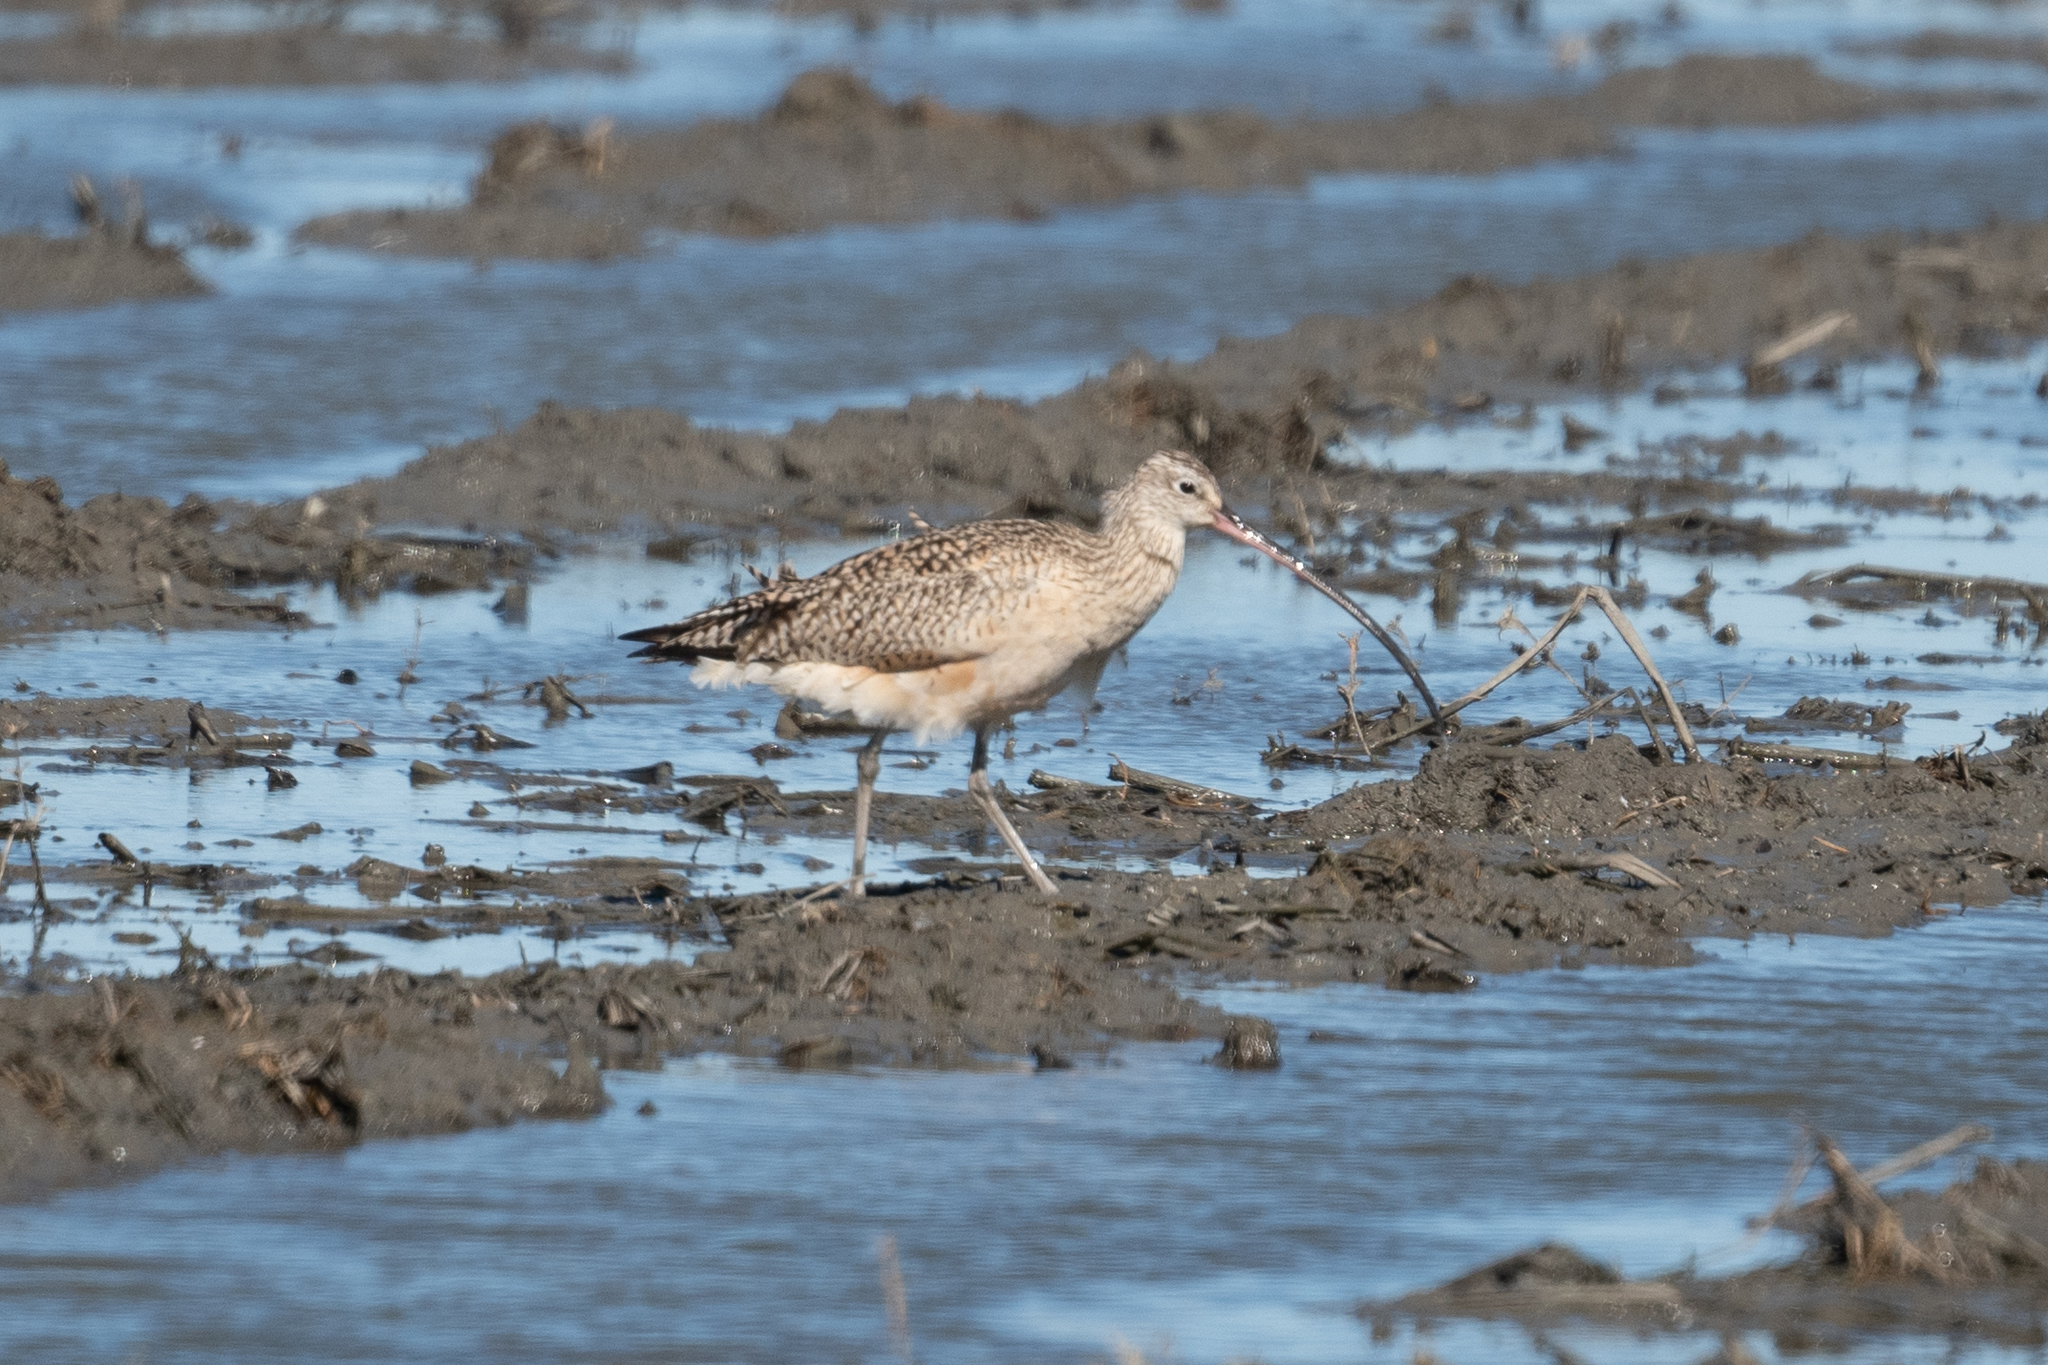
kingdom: Animalia
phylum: Chordata
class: Aves
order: Charadriiformes
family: Scolopacidae
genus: Numenius
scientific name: Numenius americanus
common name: Long-billed curlew
